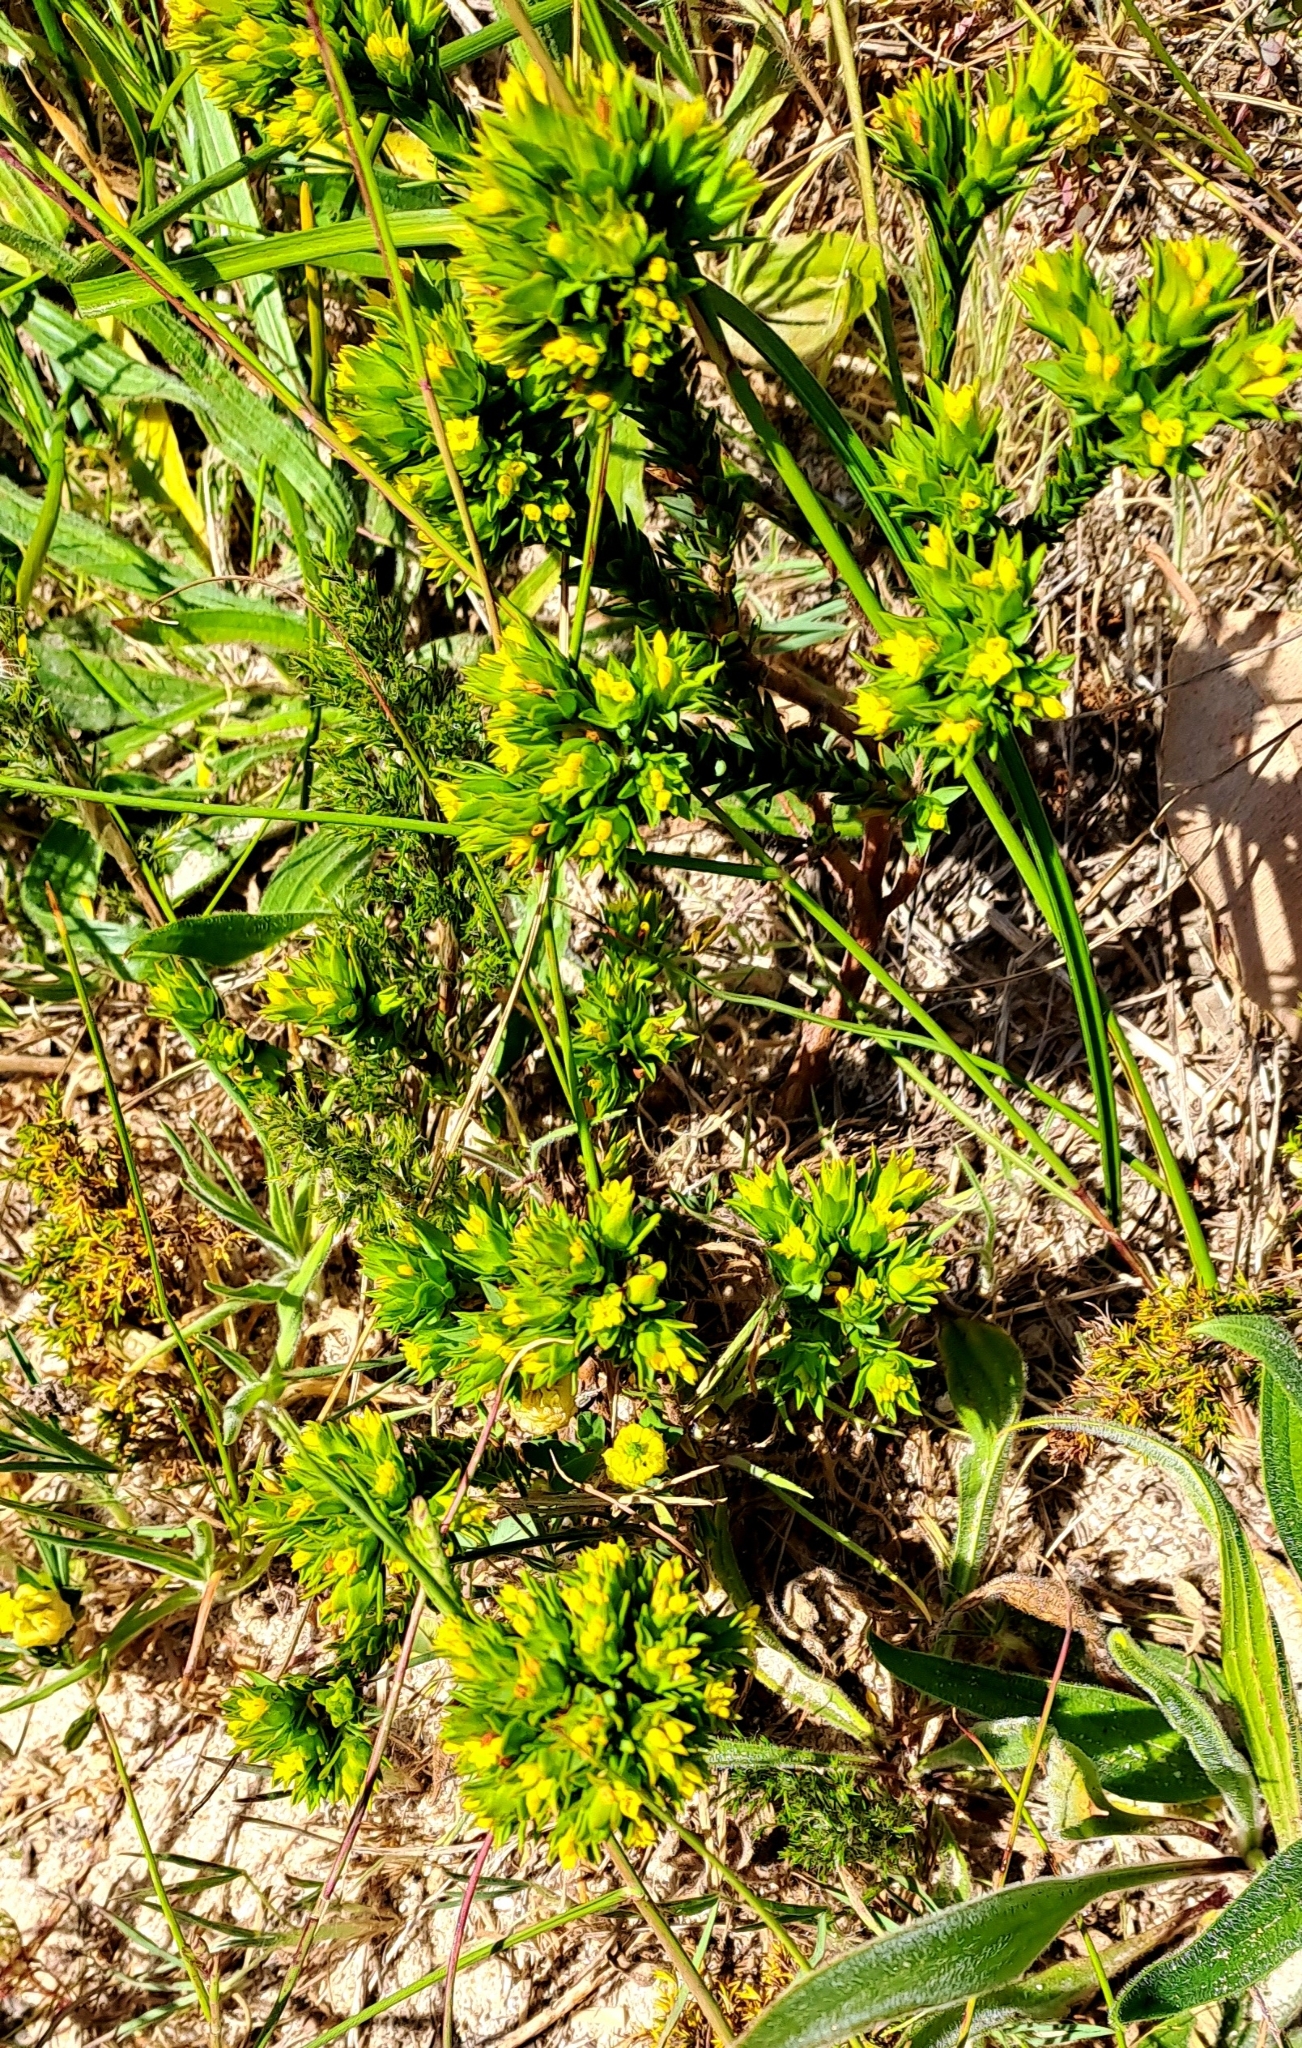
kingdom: Plantae
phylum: Tracheophyta
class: Magnoliopsida
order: Malvales
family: Thymelaeaceae
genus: Gnidia
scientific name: Gnidia juniperifolia
